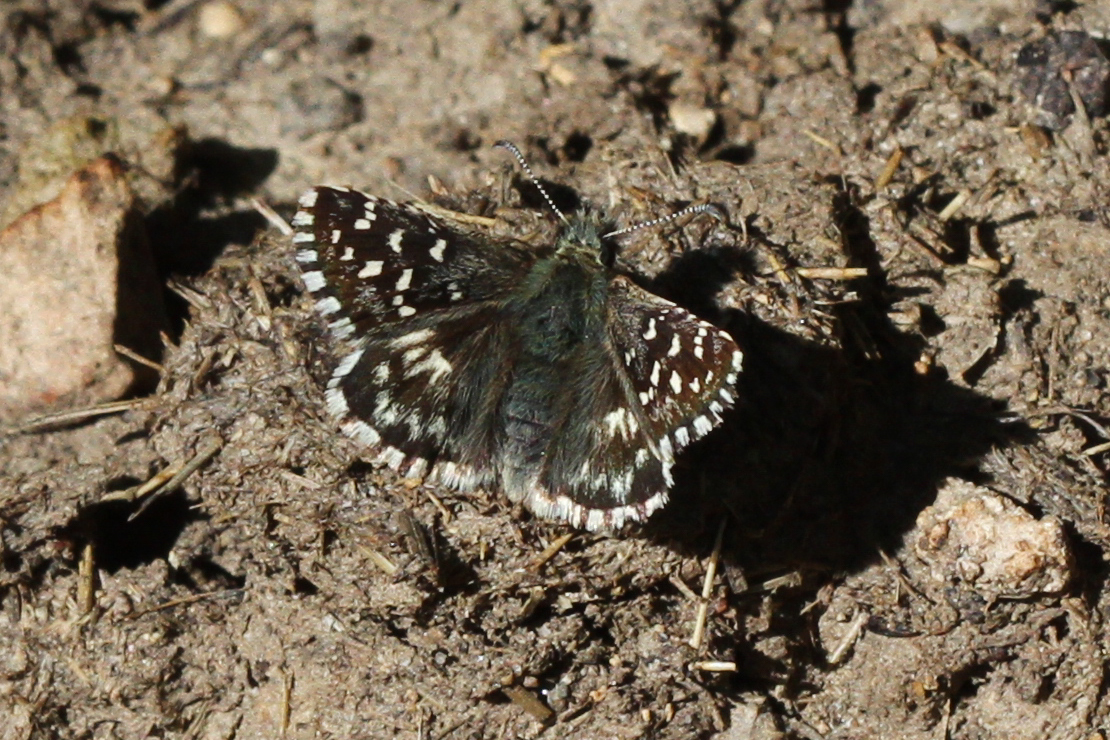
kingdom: Animalia
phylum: Arthropoda
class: Insecta
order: Lepidoptera
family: Hesperiidae
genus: Pyrgus
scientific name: Pyrgus malvoides
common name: Southern grizzled skipper
